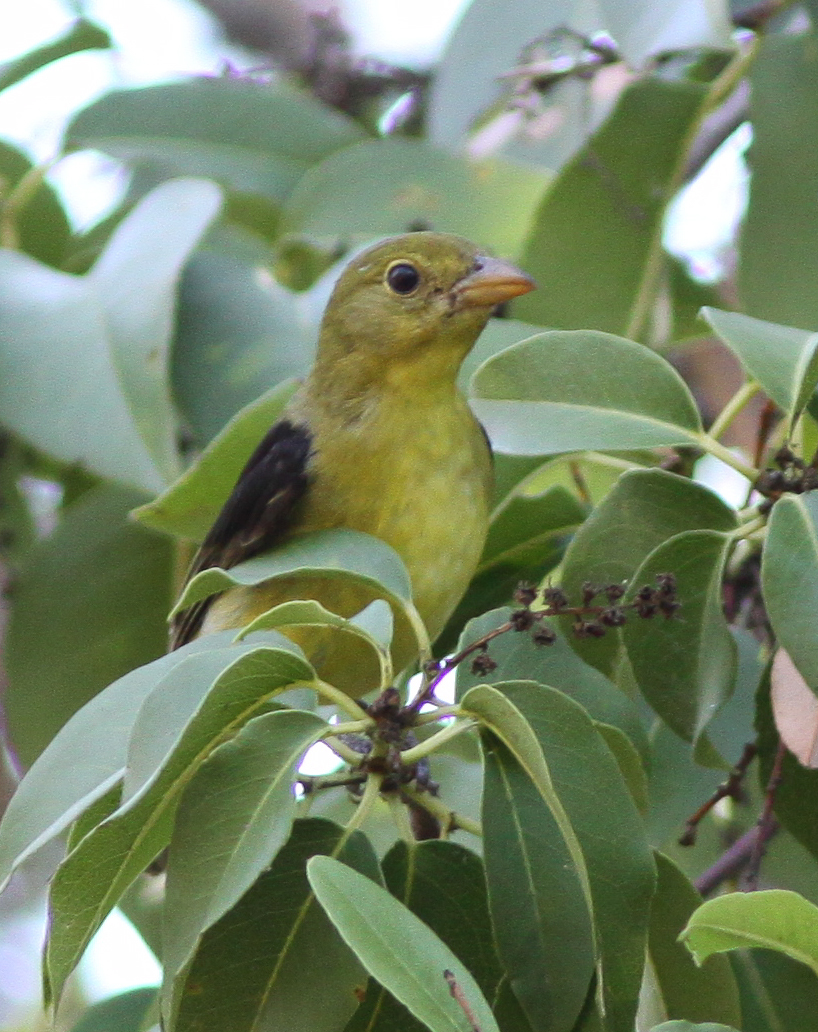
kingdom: Animalia
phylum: Chordata
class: Aves
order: Passeriformes
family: Cardinalidae
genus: Piranga
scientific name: Piranga olivacea
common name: Scarlet tanager
